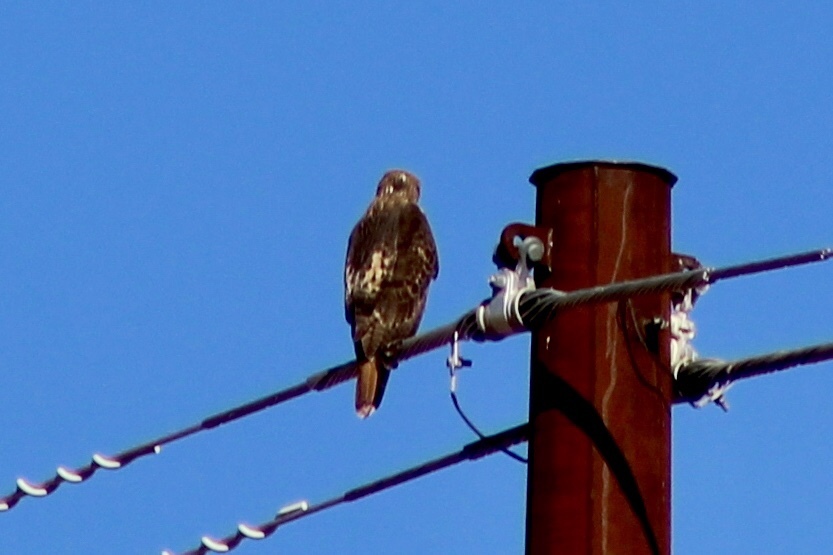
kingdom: Animalia
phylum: Chordata
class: Aves
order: Accipitriformes
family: Accipitridae
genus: Buteo
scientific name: Buteo jamaicensis
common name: Red-tailed hawk
